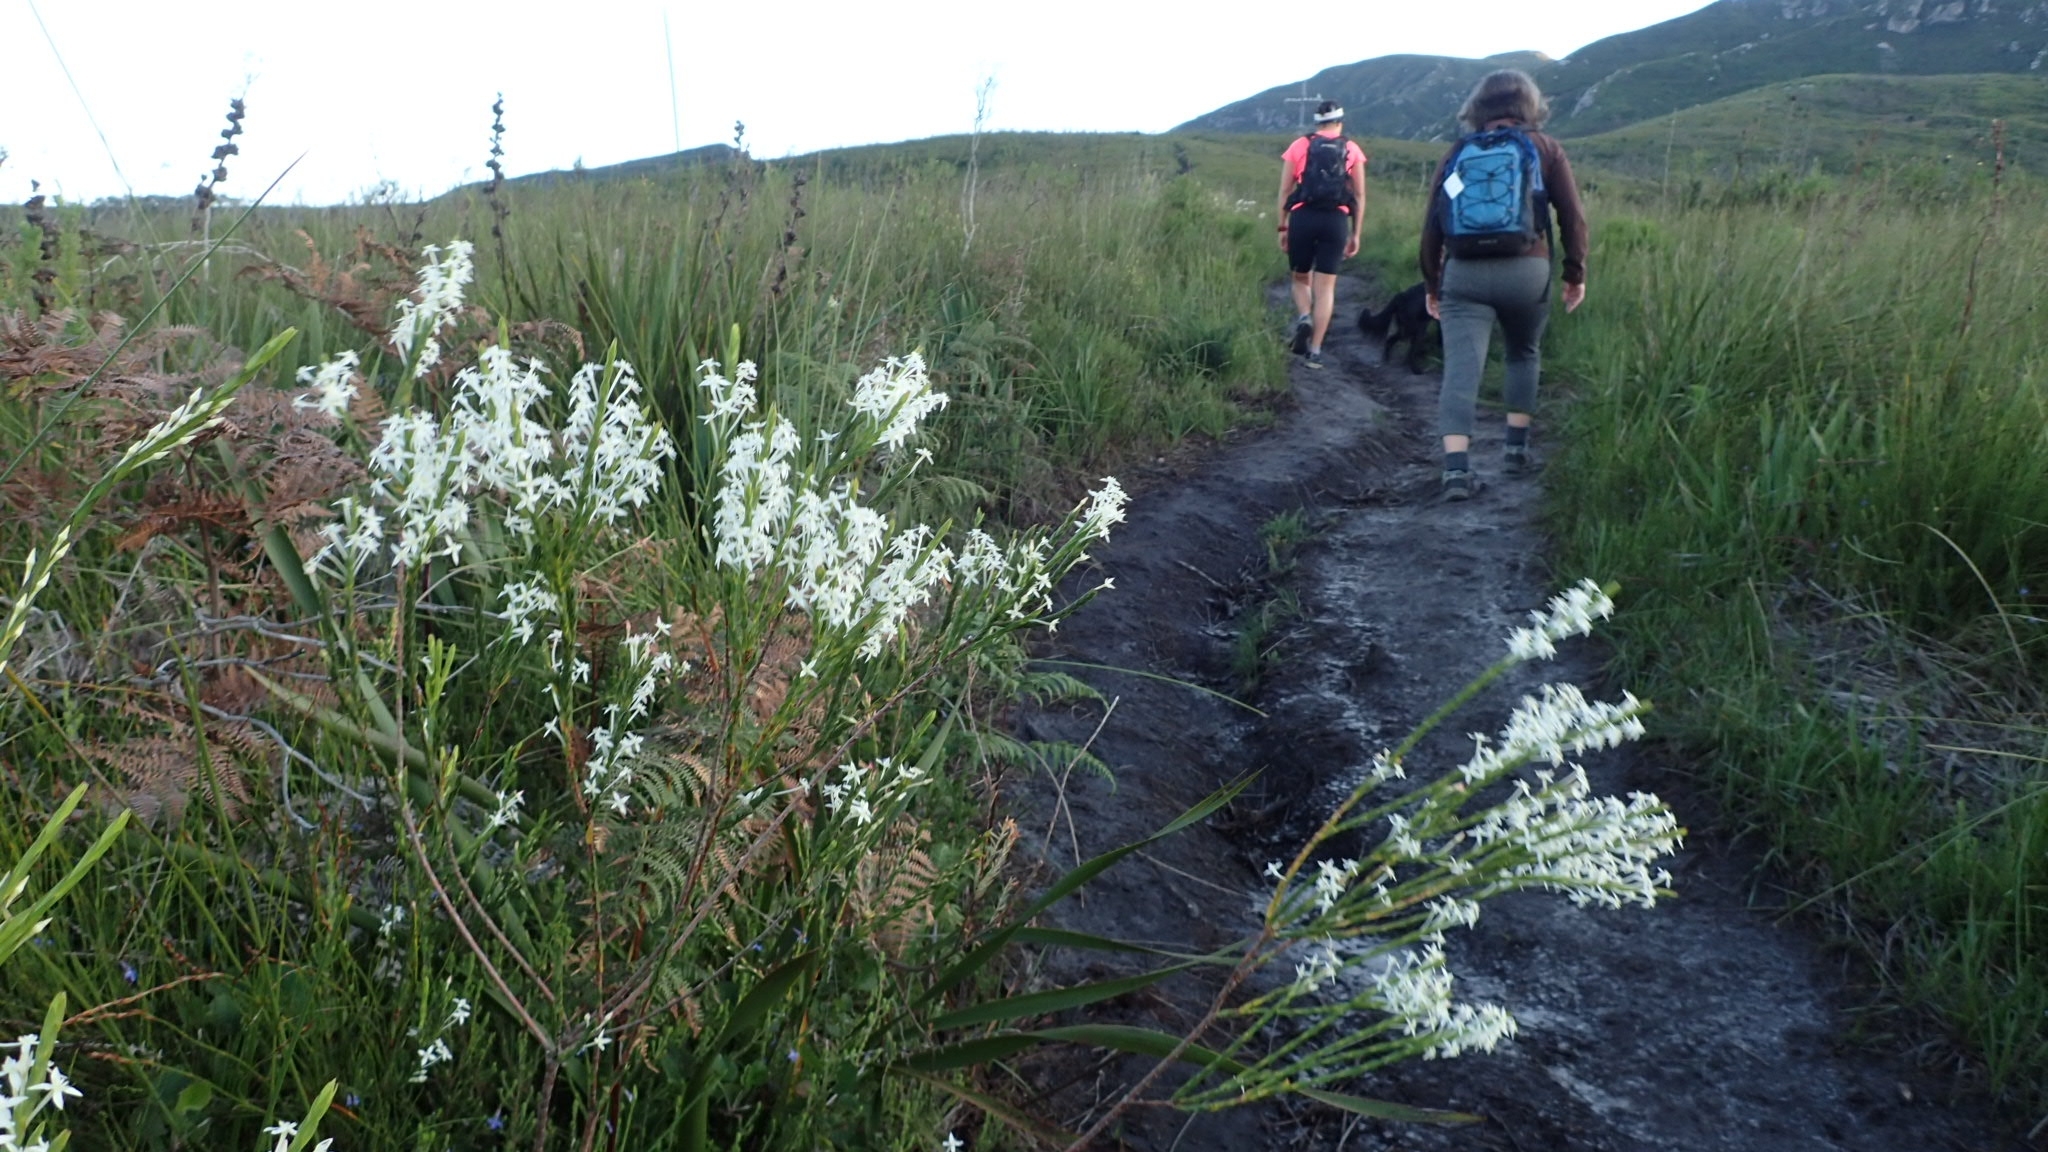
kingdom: Plantae
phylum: Tracheophyta
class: Magnoliopsida
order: Malvales
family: Thymelaeaceae
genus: Struthiola
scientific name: Struthiola myrsinites
